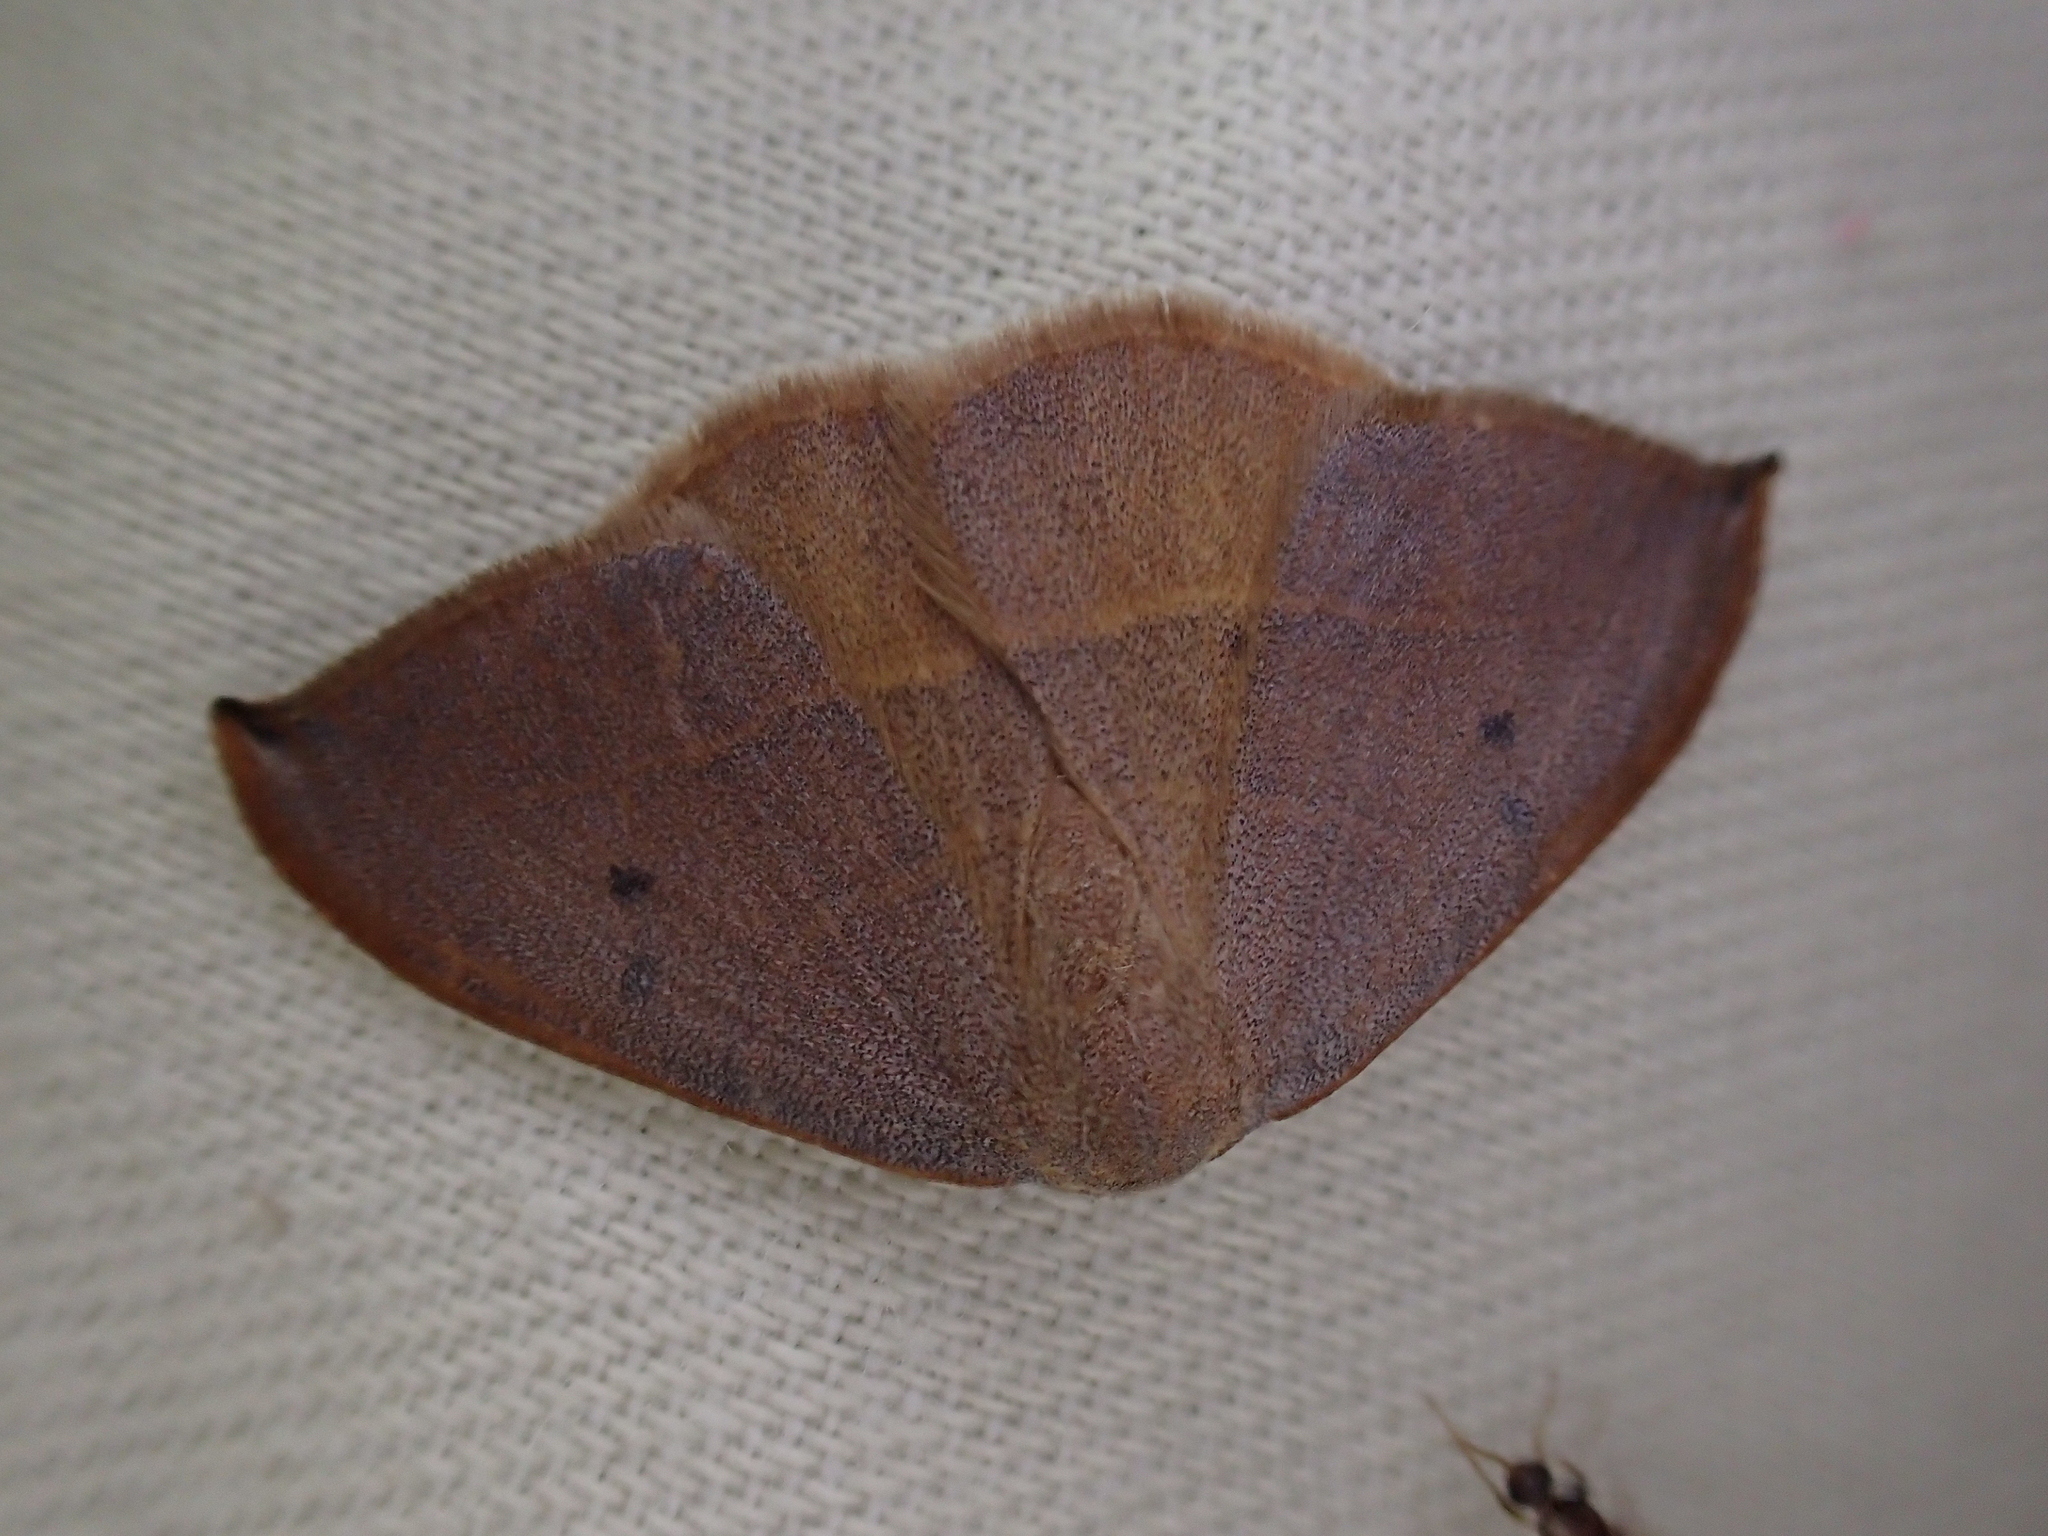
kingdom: Animalia
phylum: Arthropoda
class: Insecta
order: Lepidoptera
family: Drepanidae
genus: Watsonalla
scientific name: Watsonalla uncinula
